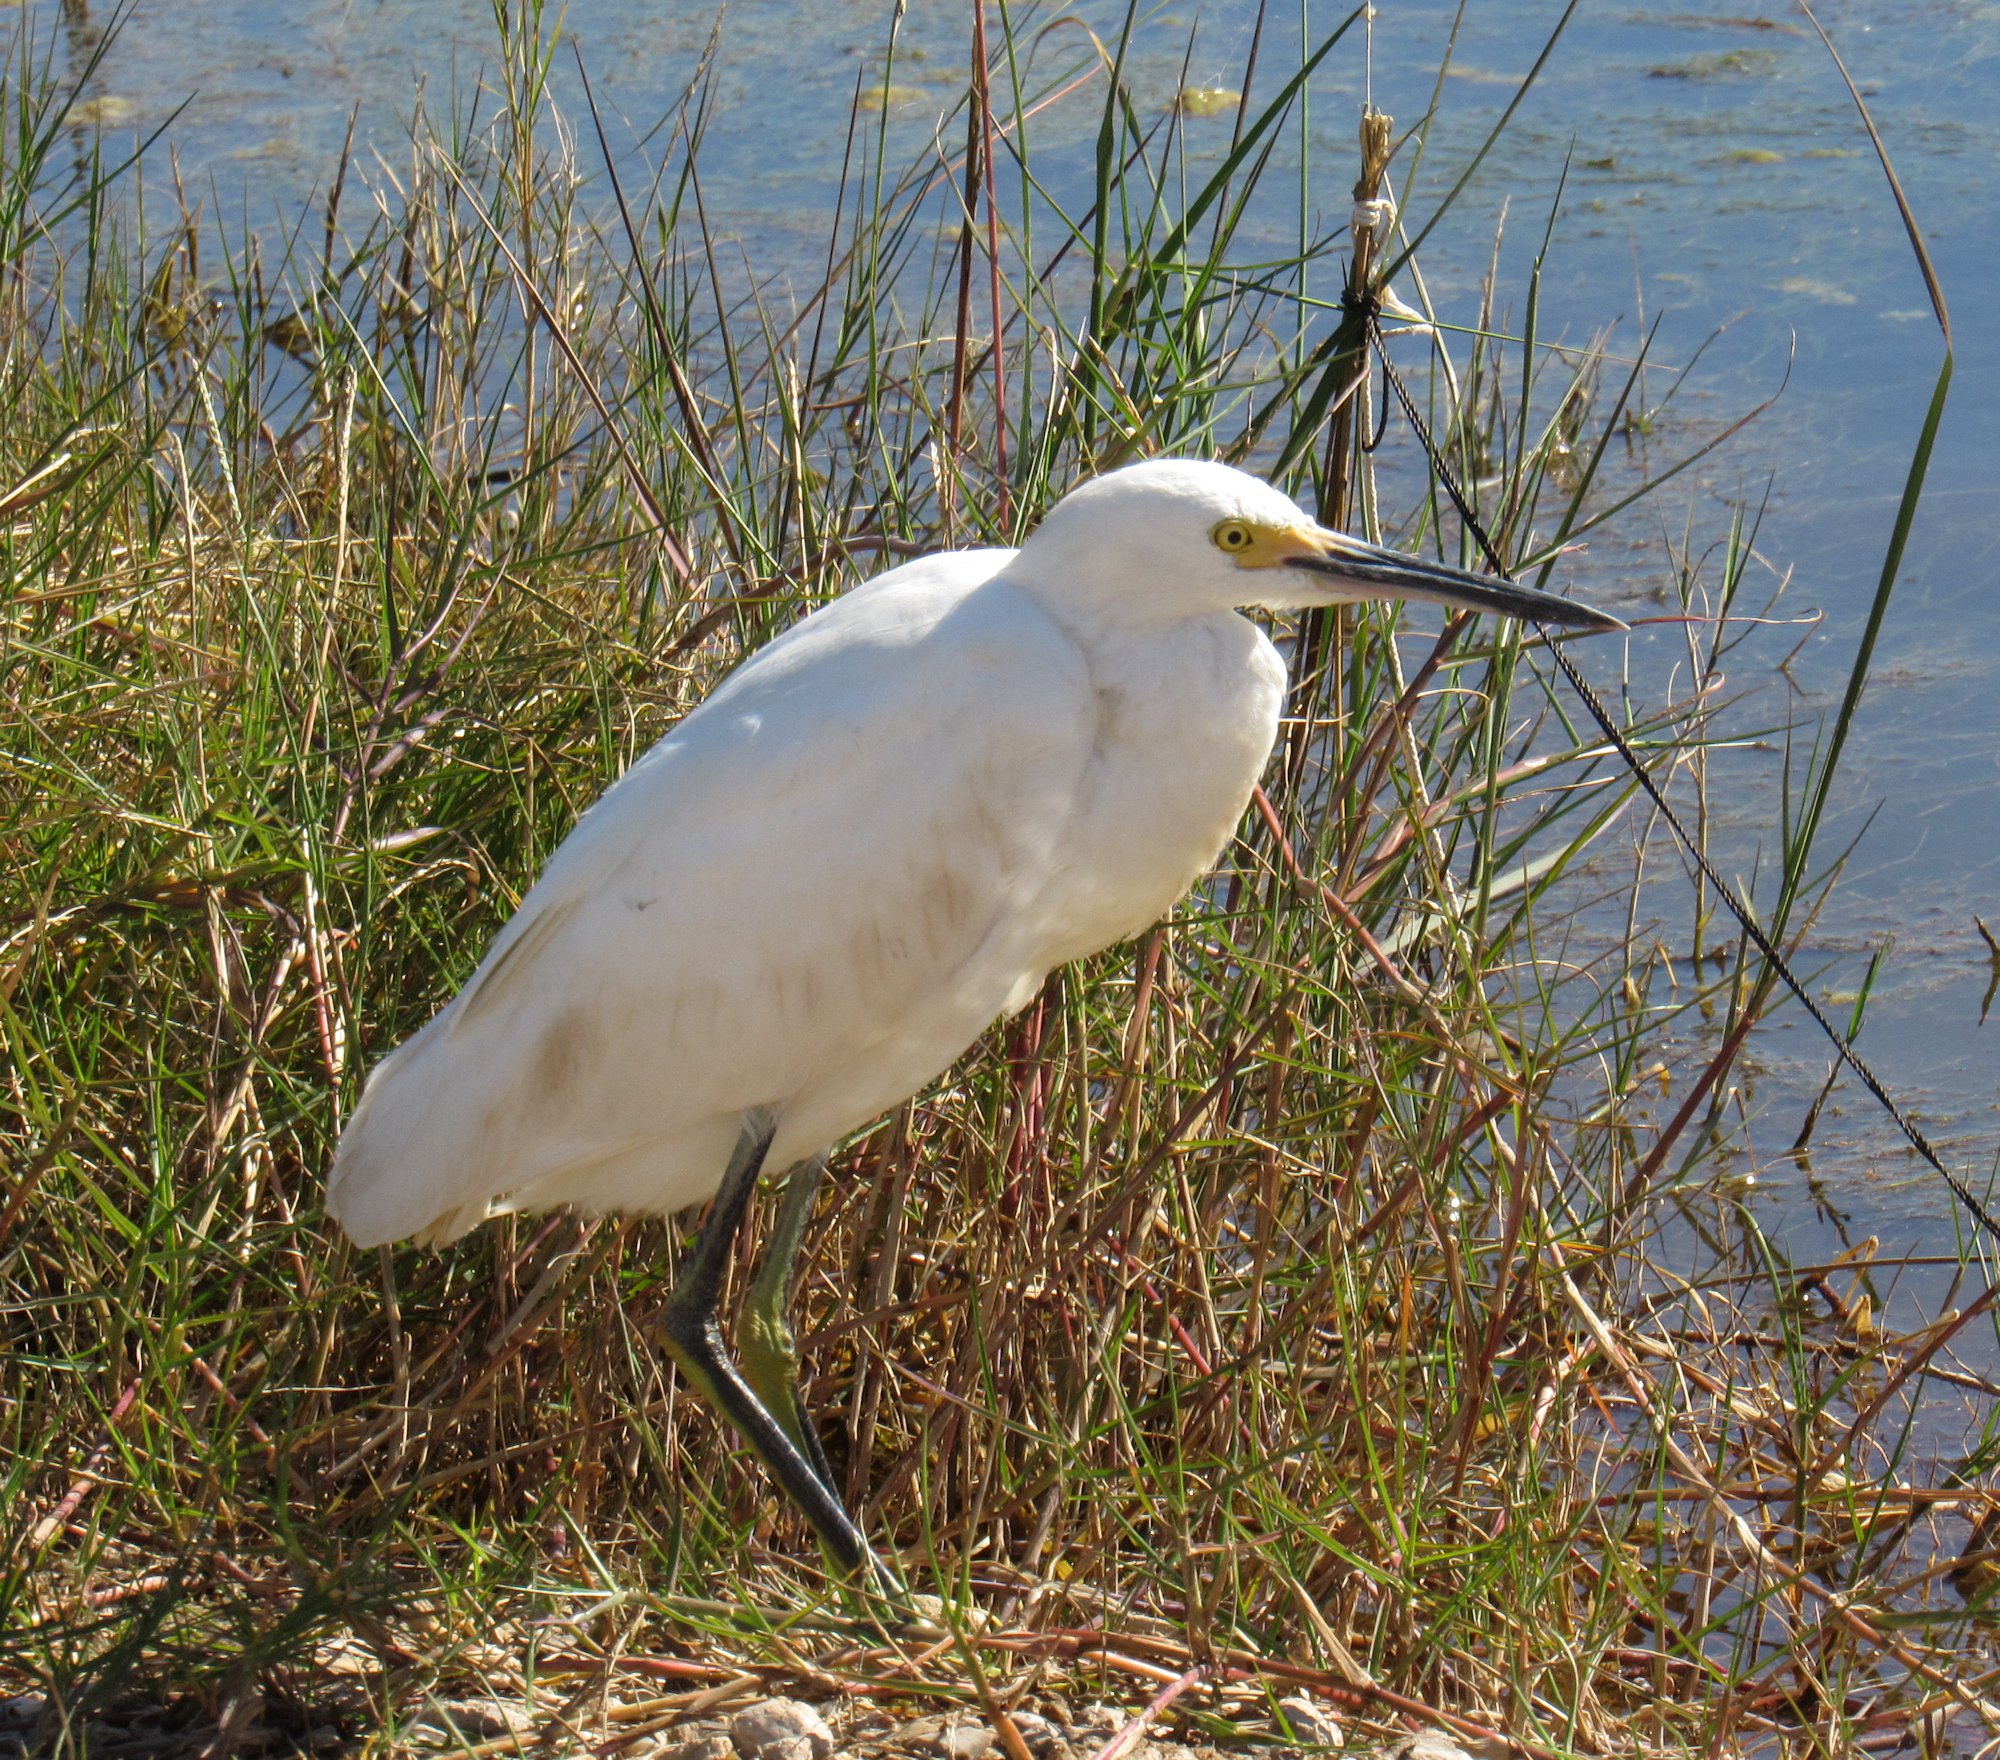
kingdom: Animalia
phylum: Chordata
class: Aves
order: Pelecaniformes
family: Ardeidae
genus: Egretta
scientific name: Egretta thula
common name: Snowy egret
